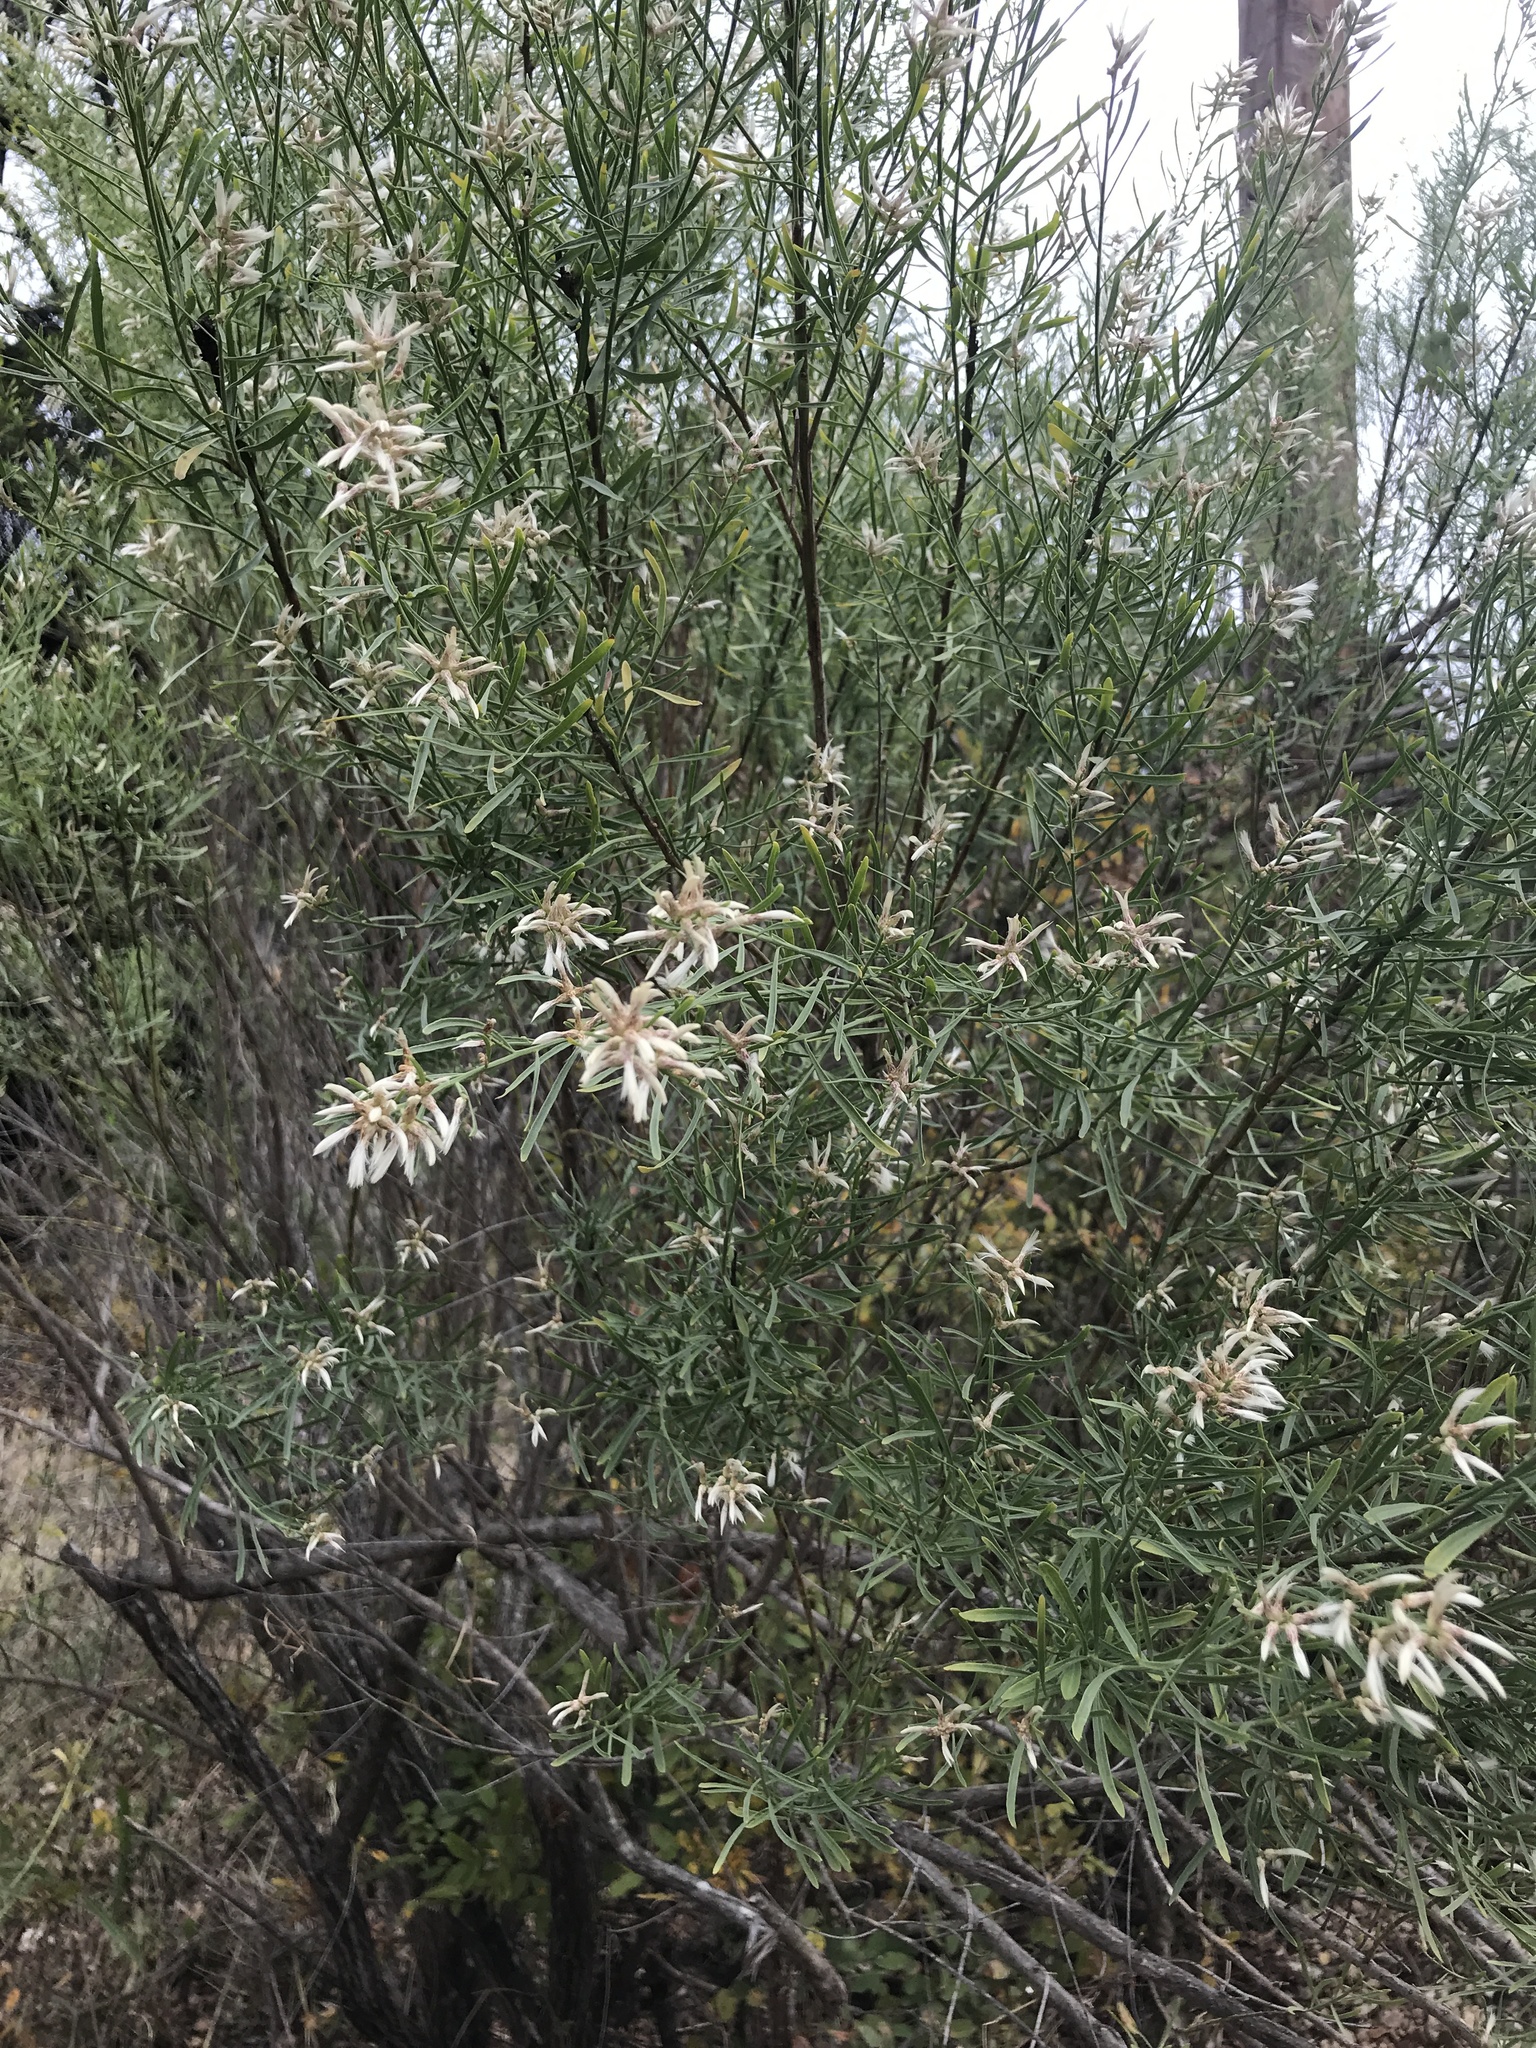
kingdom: Plantae
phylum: Tracheophyta
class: Magnoliopsida
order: Asterales
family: Asteraceae
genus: Baccharis
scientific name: Baccharis neglecta
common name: Roosevelt-weed
